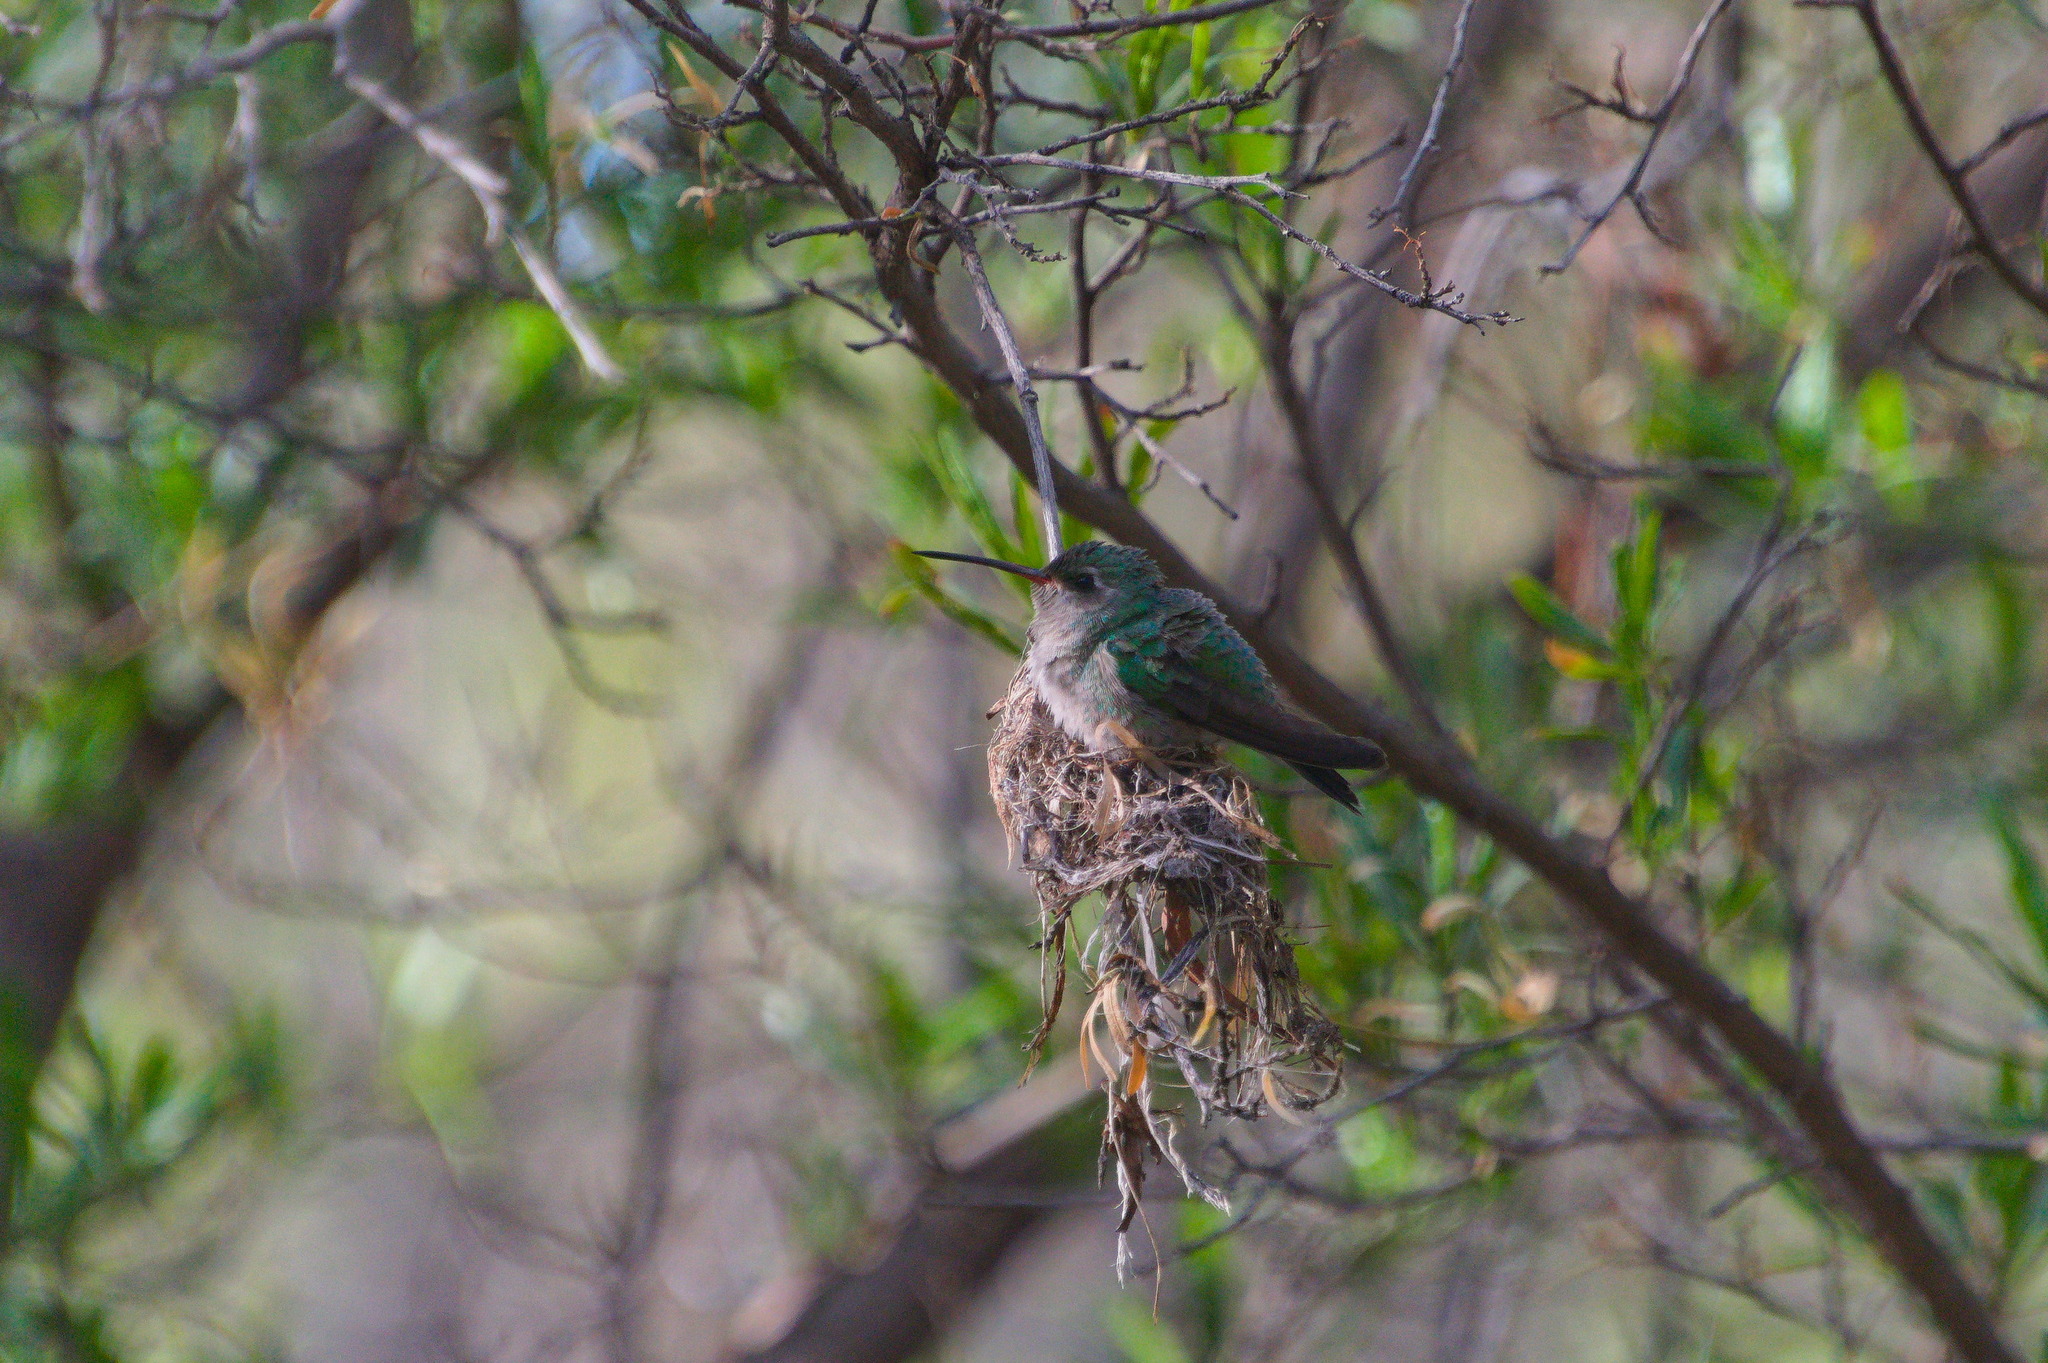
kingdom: Animalia
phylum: Chordata
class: Aves
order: Apodiformes
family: Trochilidae
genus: Cynanthus
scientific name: Cynanthus latirostris
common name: Broad-billed hummingbird
